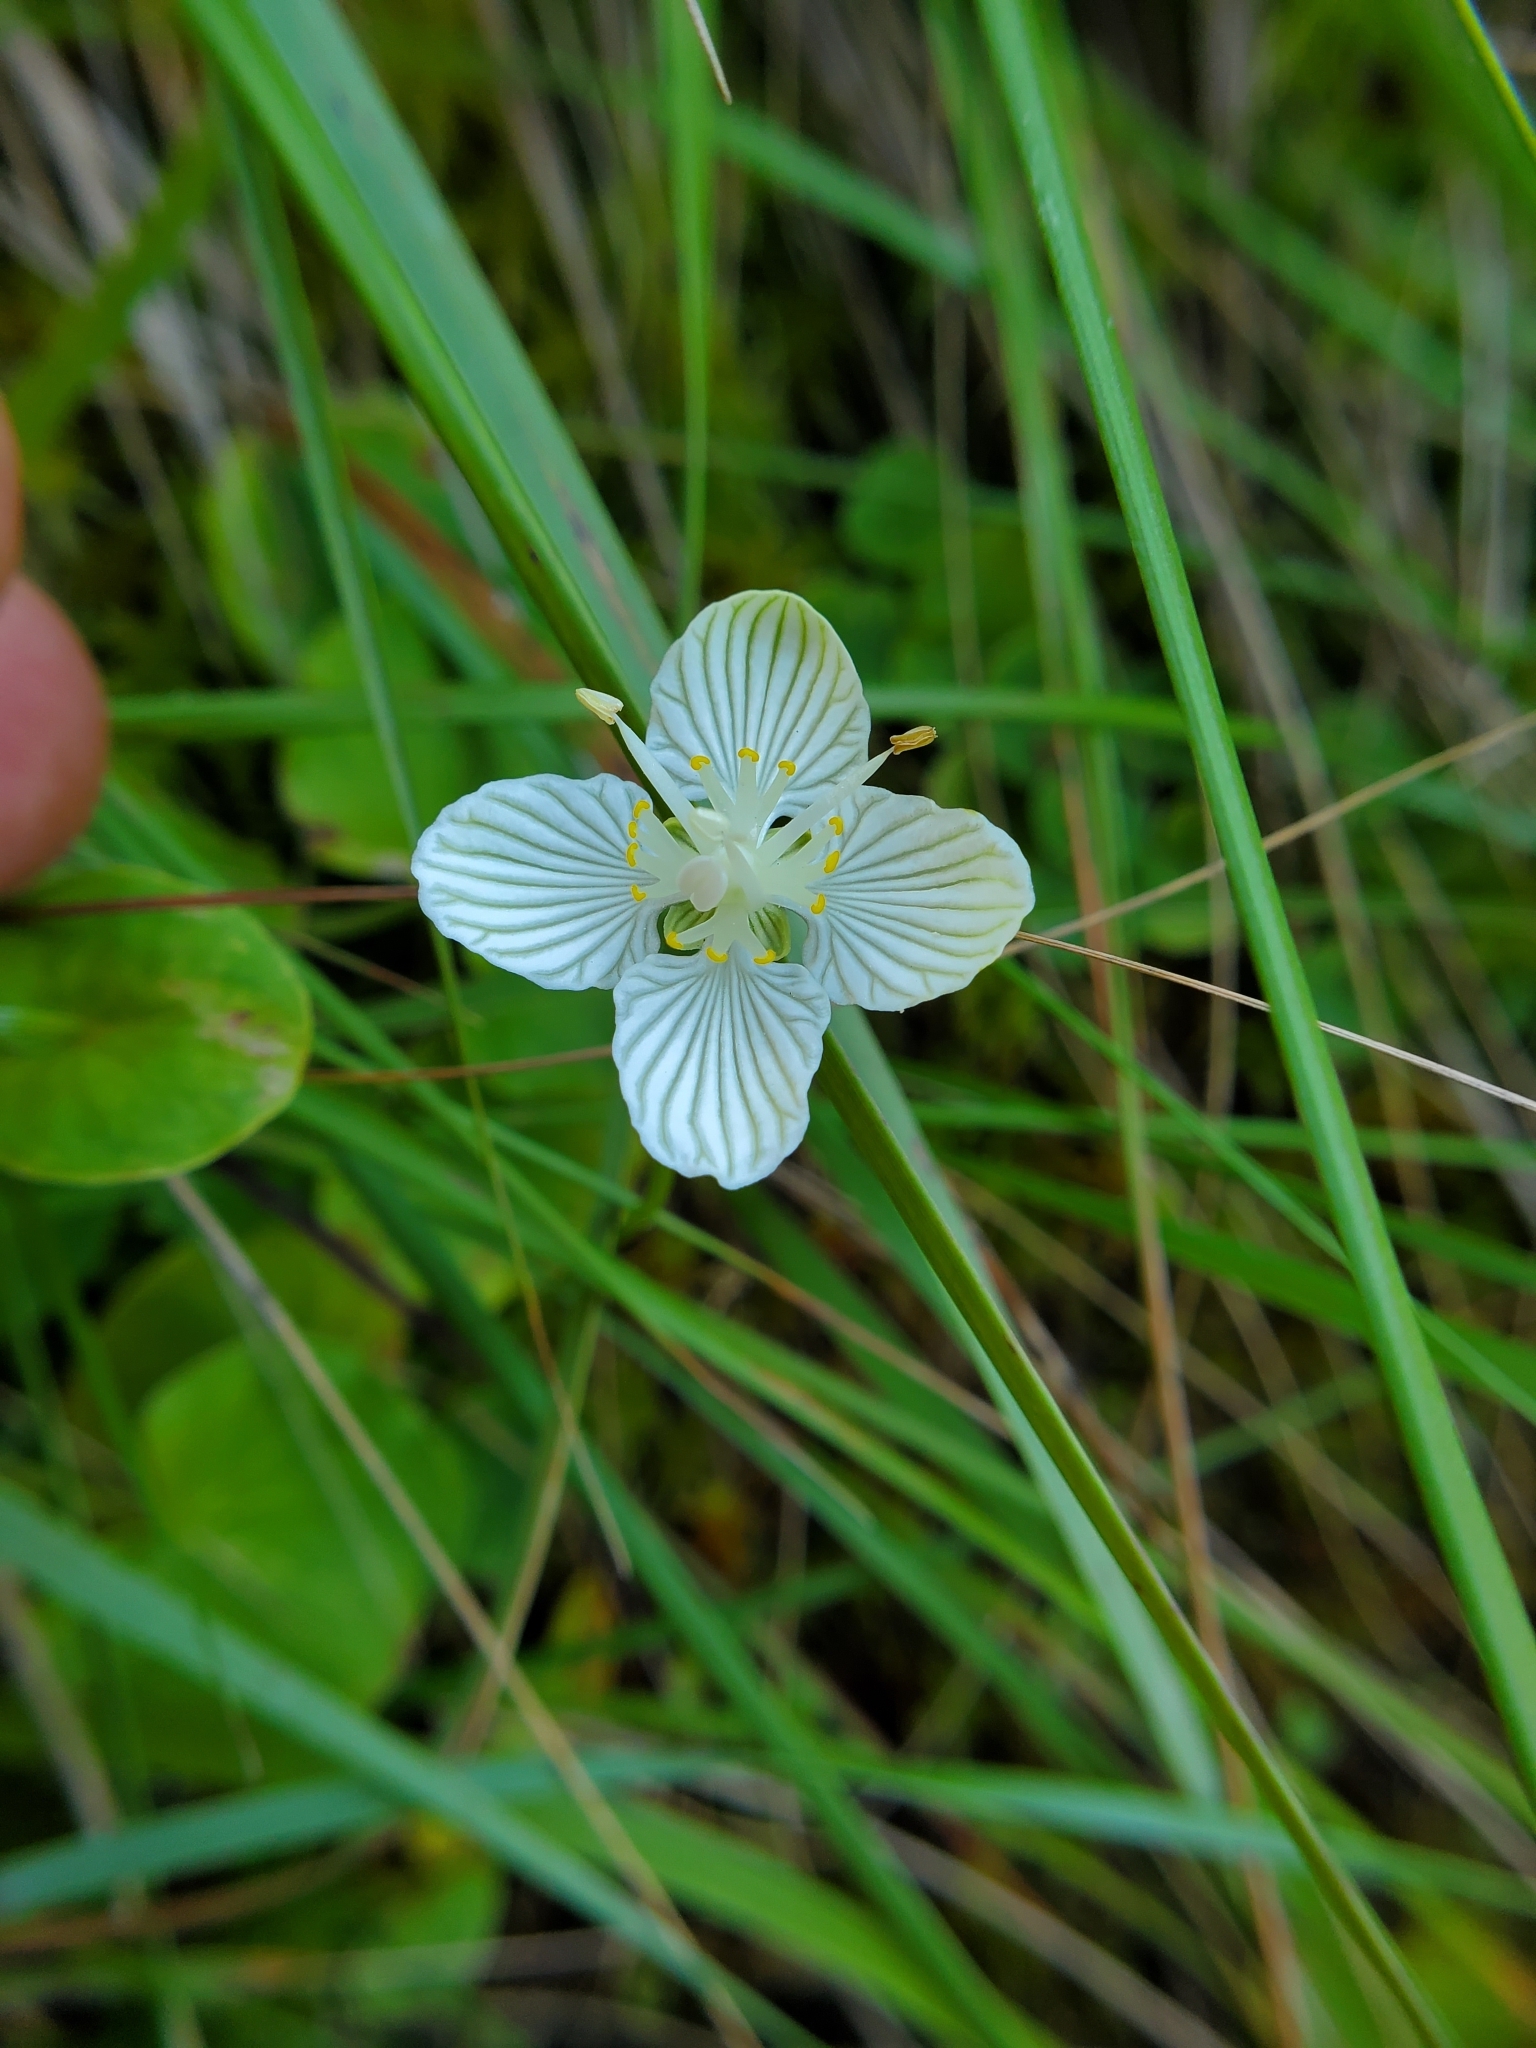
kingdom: Plantae
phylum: Tracheophyta
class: Magnoliopsida
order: Celastrales
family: Parnassiaceae
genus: Parnassia
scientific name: Parnassia asarifolia
